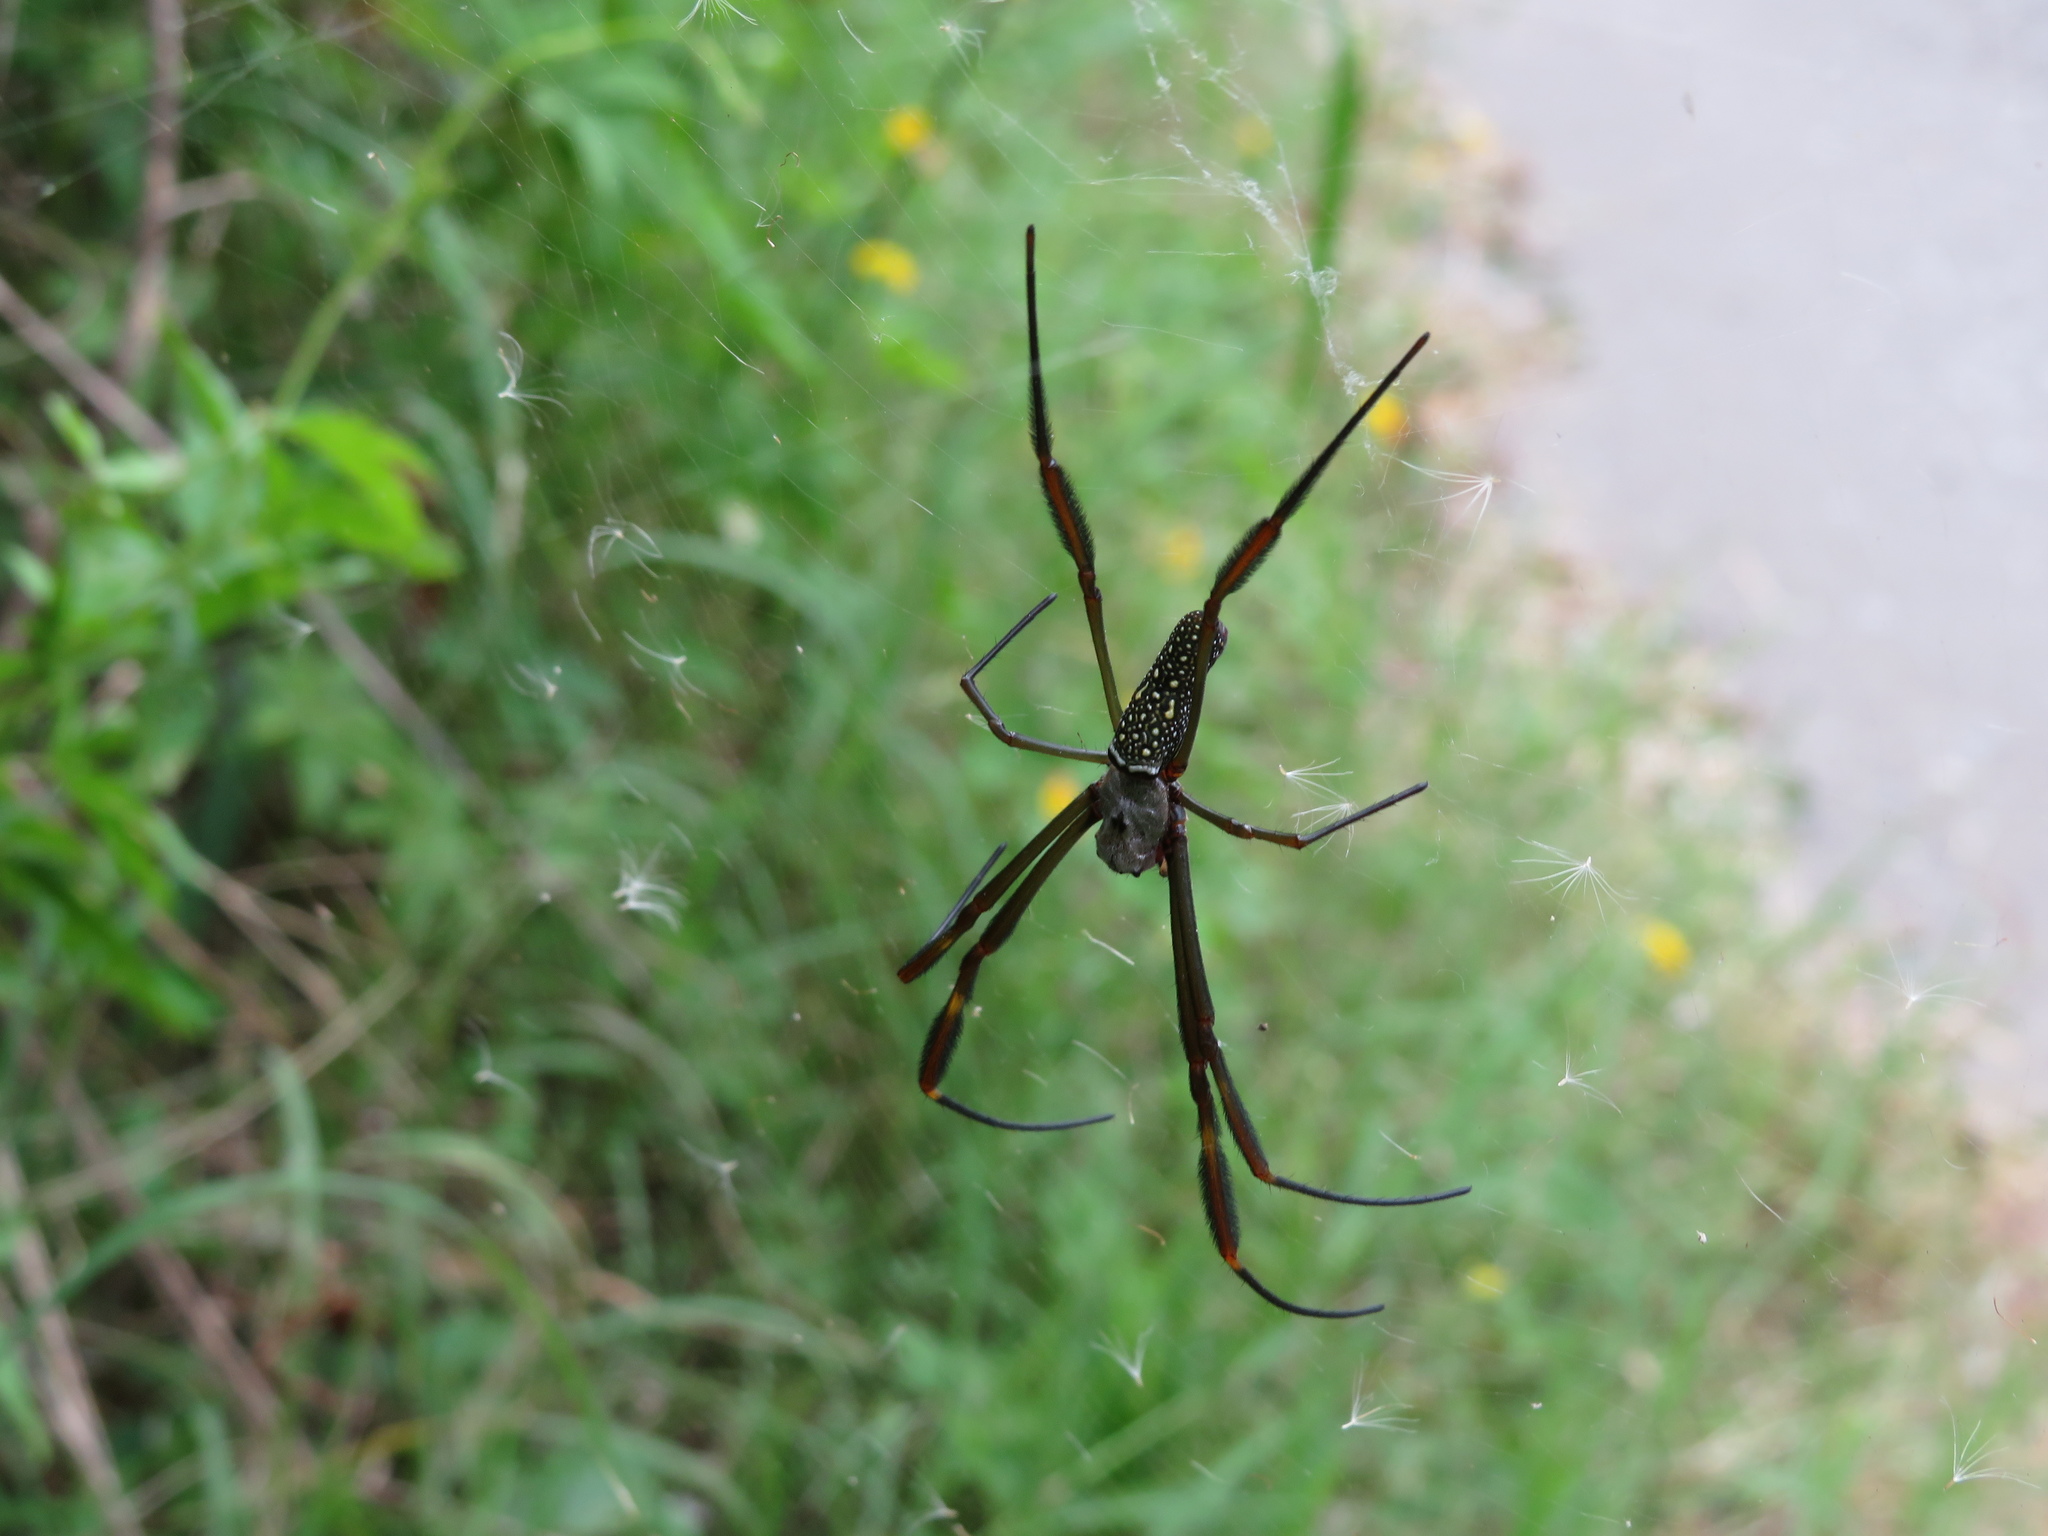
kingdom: Animalia
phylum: Arthropoda
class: Arachnida
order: Araneae
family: Araneidae
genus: Trichonephila
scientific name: Trichonephila clavipes
